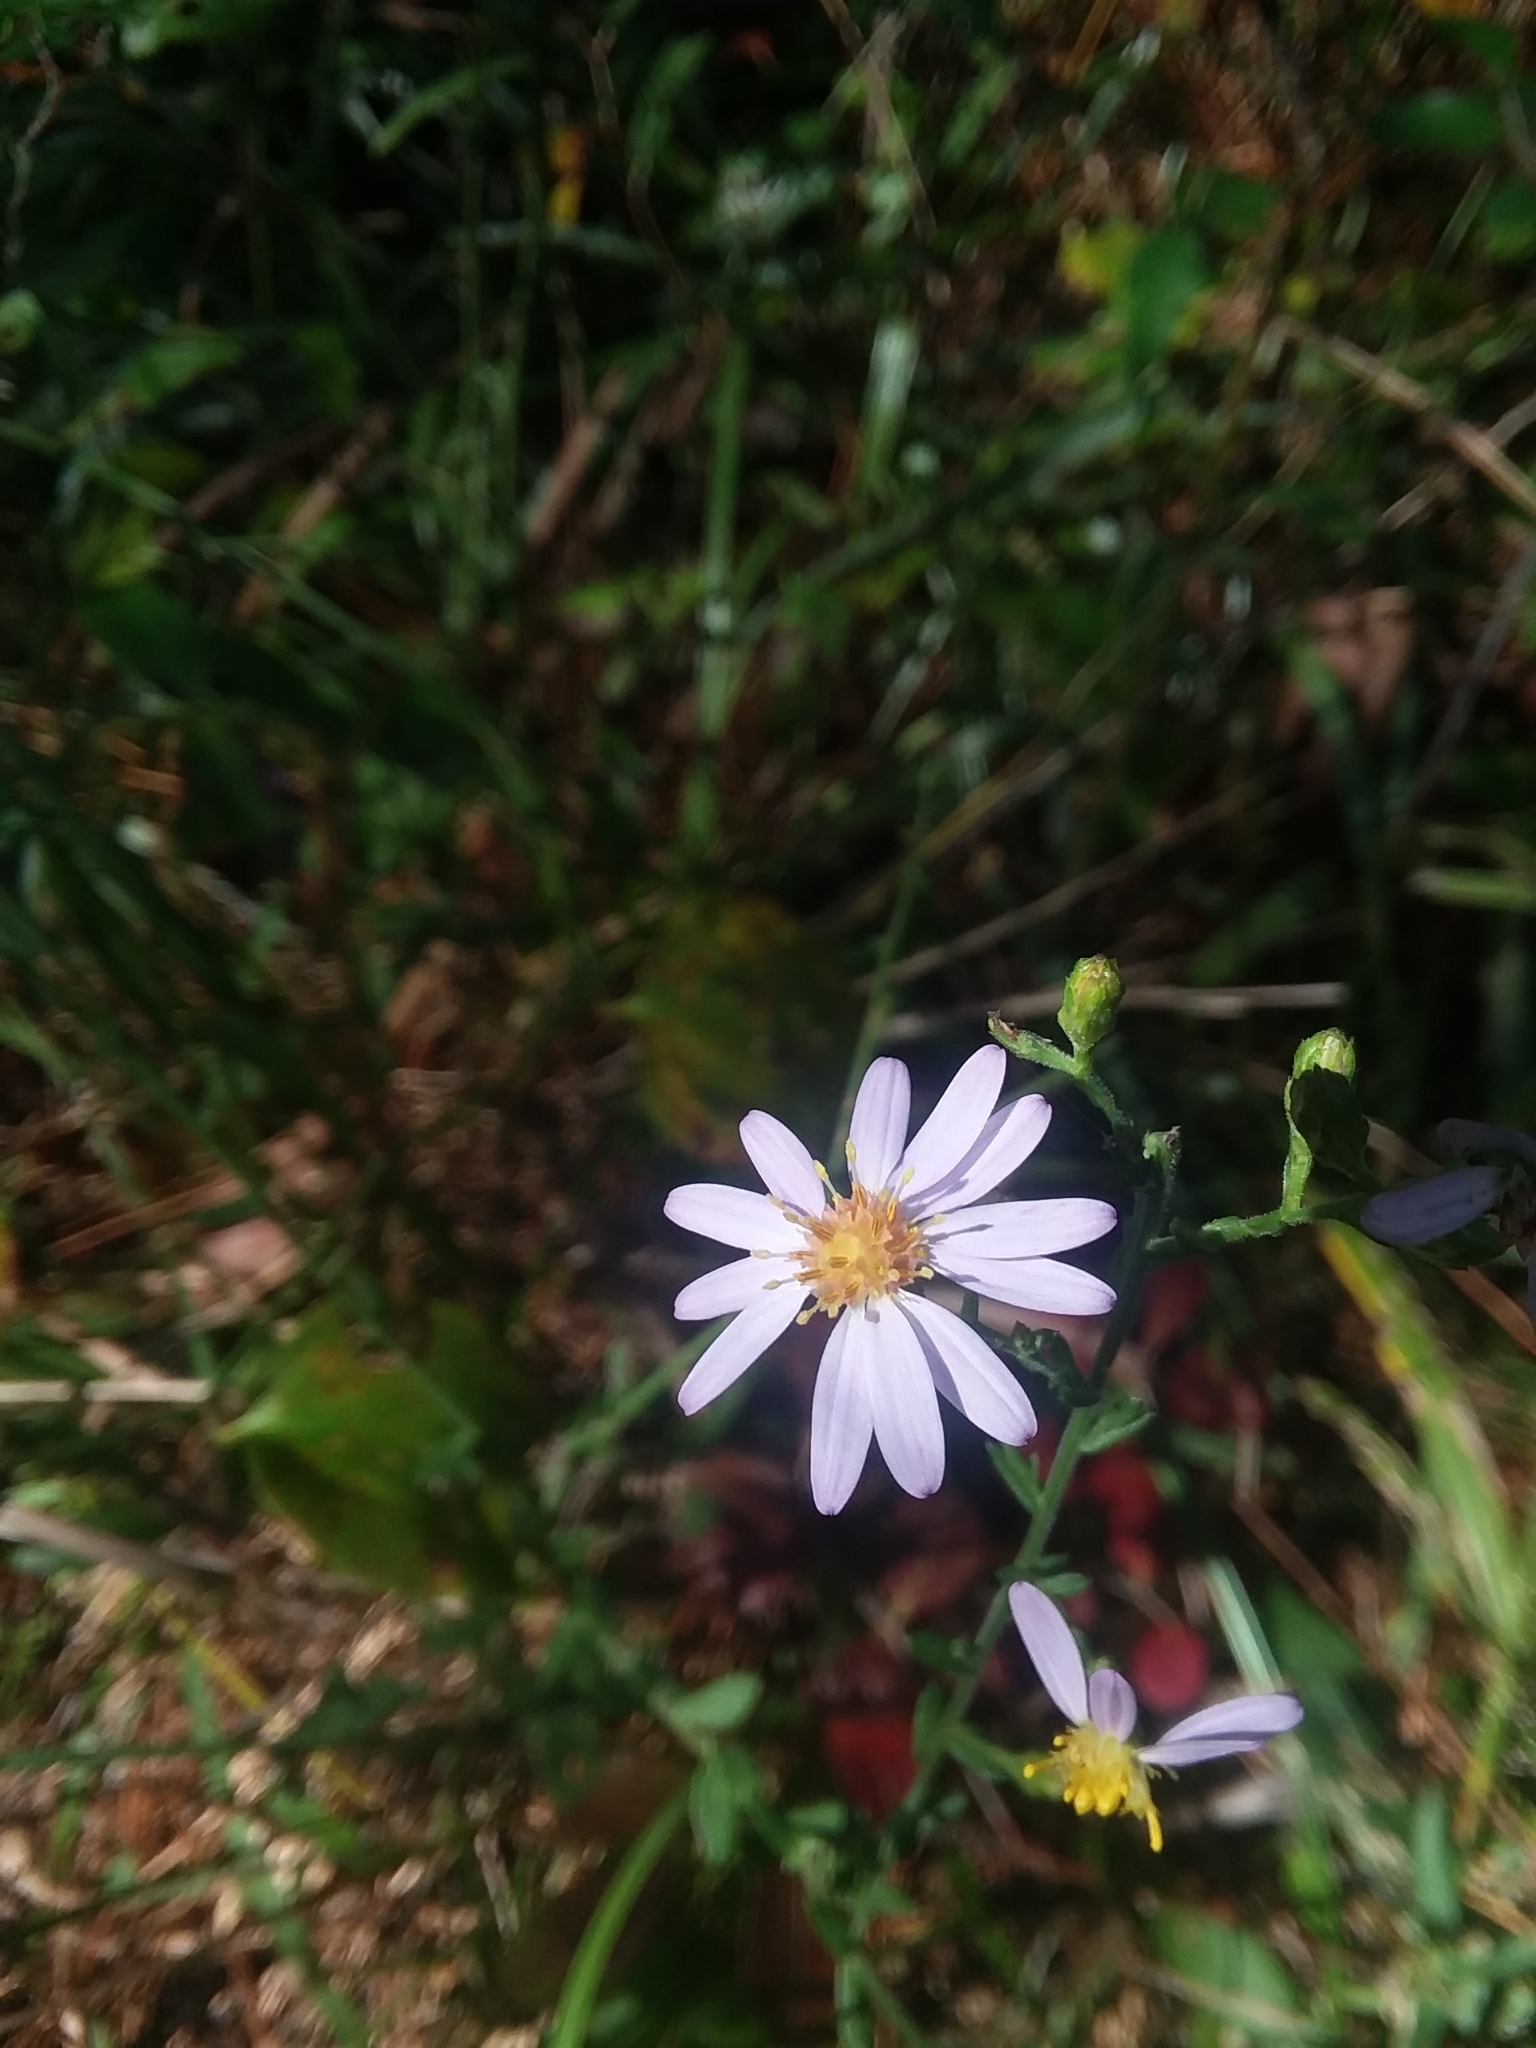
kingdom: Plantae
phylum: Tracheophyta
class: Magnoliopsida
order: Asterales
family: Asteraceae
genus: Symphyotrichum
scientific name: Symphyotrichum undulatum
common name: Clasping heart-leaf aster
